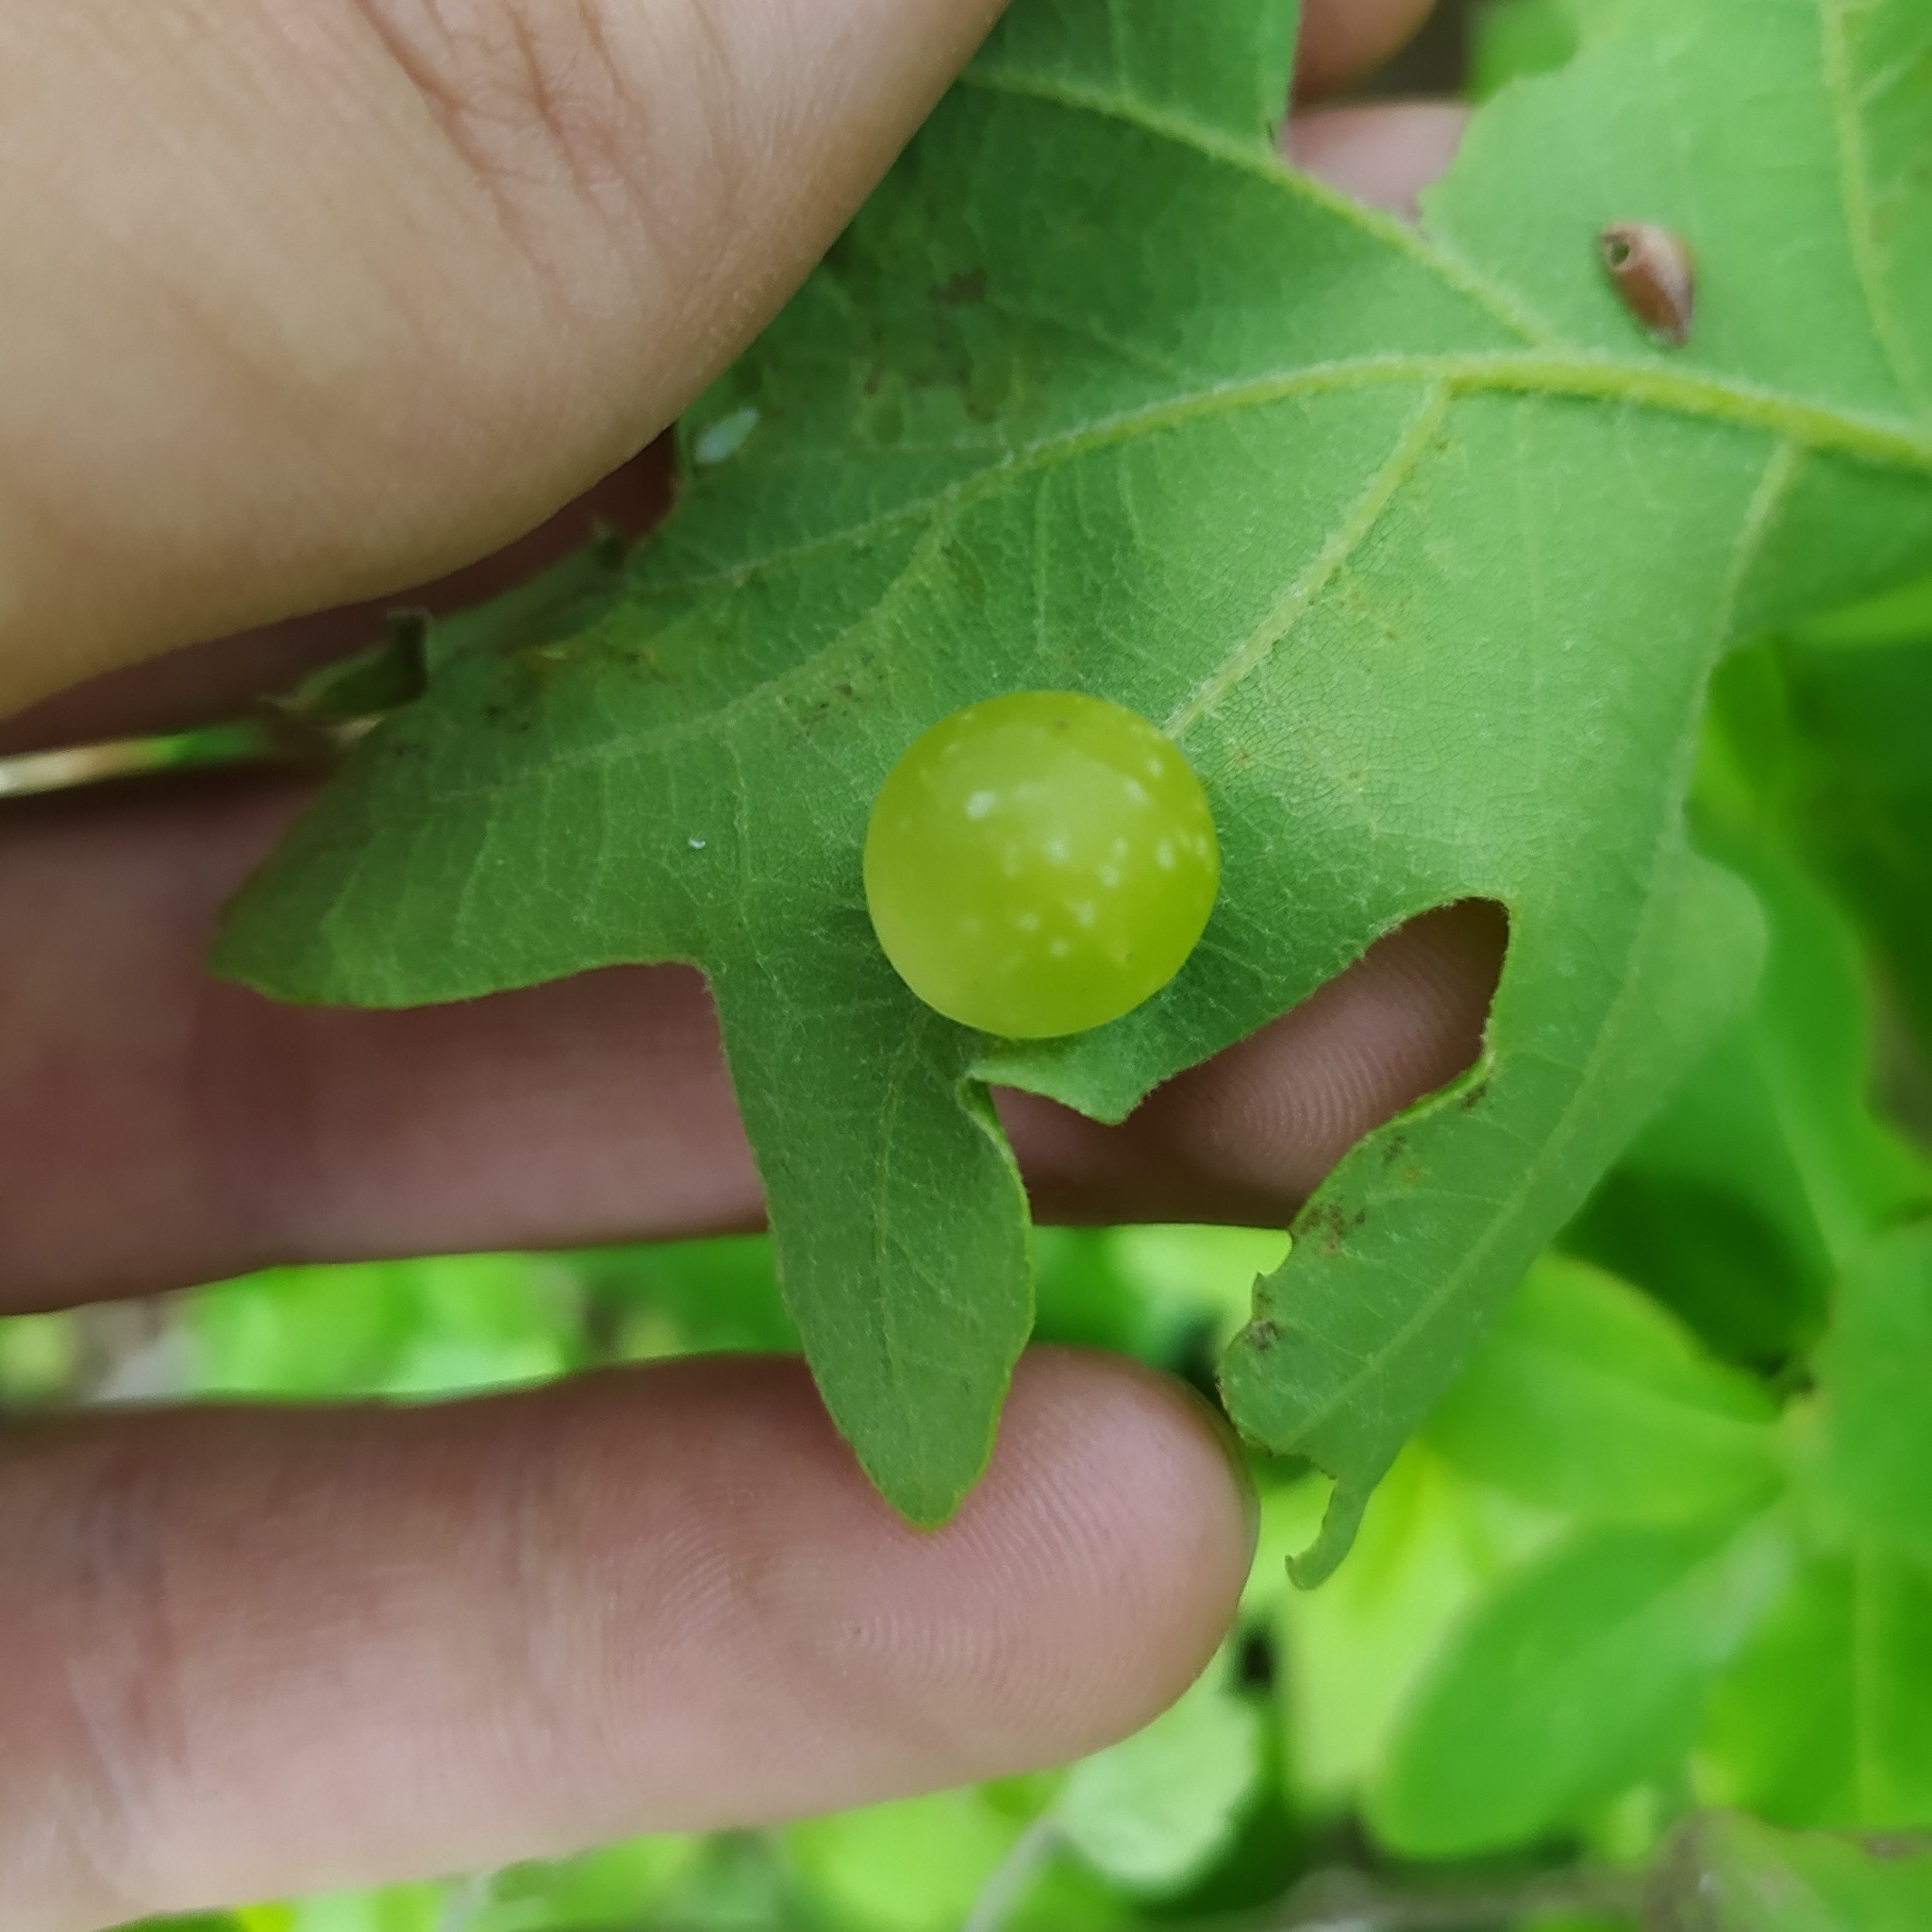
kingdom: Animalia
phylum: Arthropoda
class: Insecta
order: Hymenoptera
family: Cynipidae
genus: Neuroterus
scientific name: Neuroterus quercusbaccarum
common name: Common spangle gall
